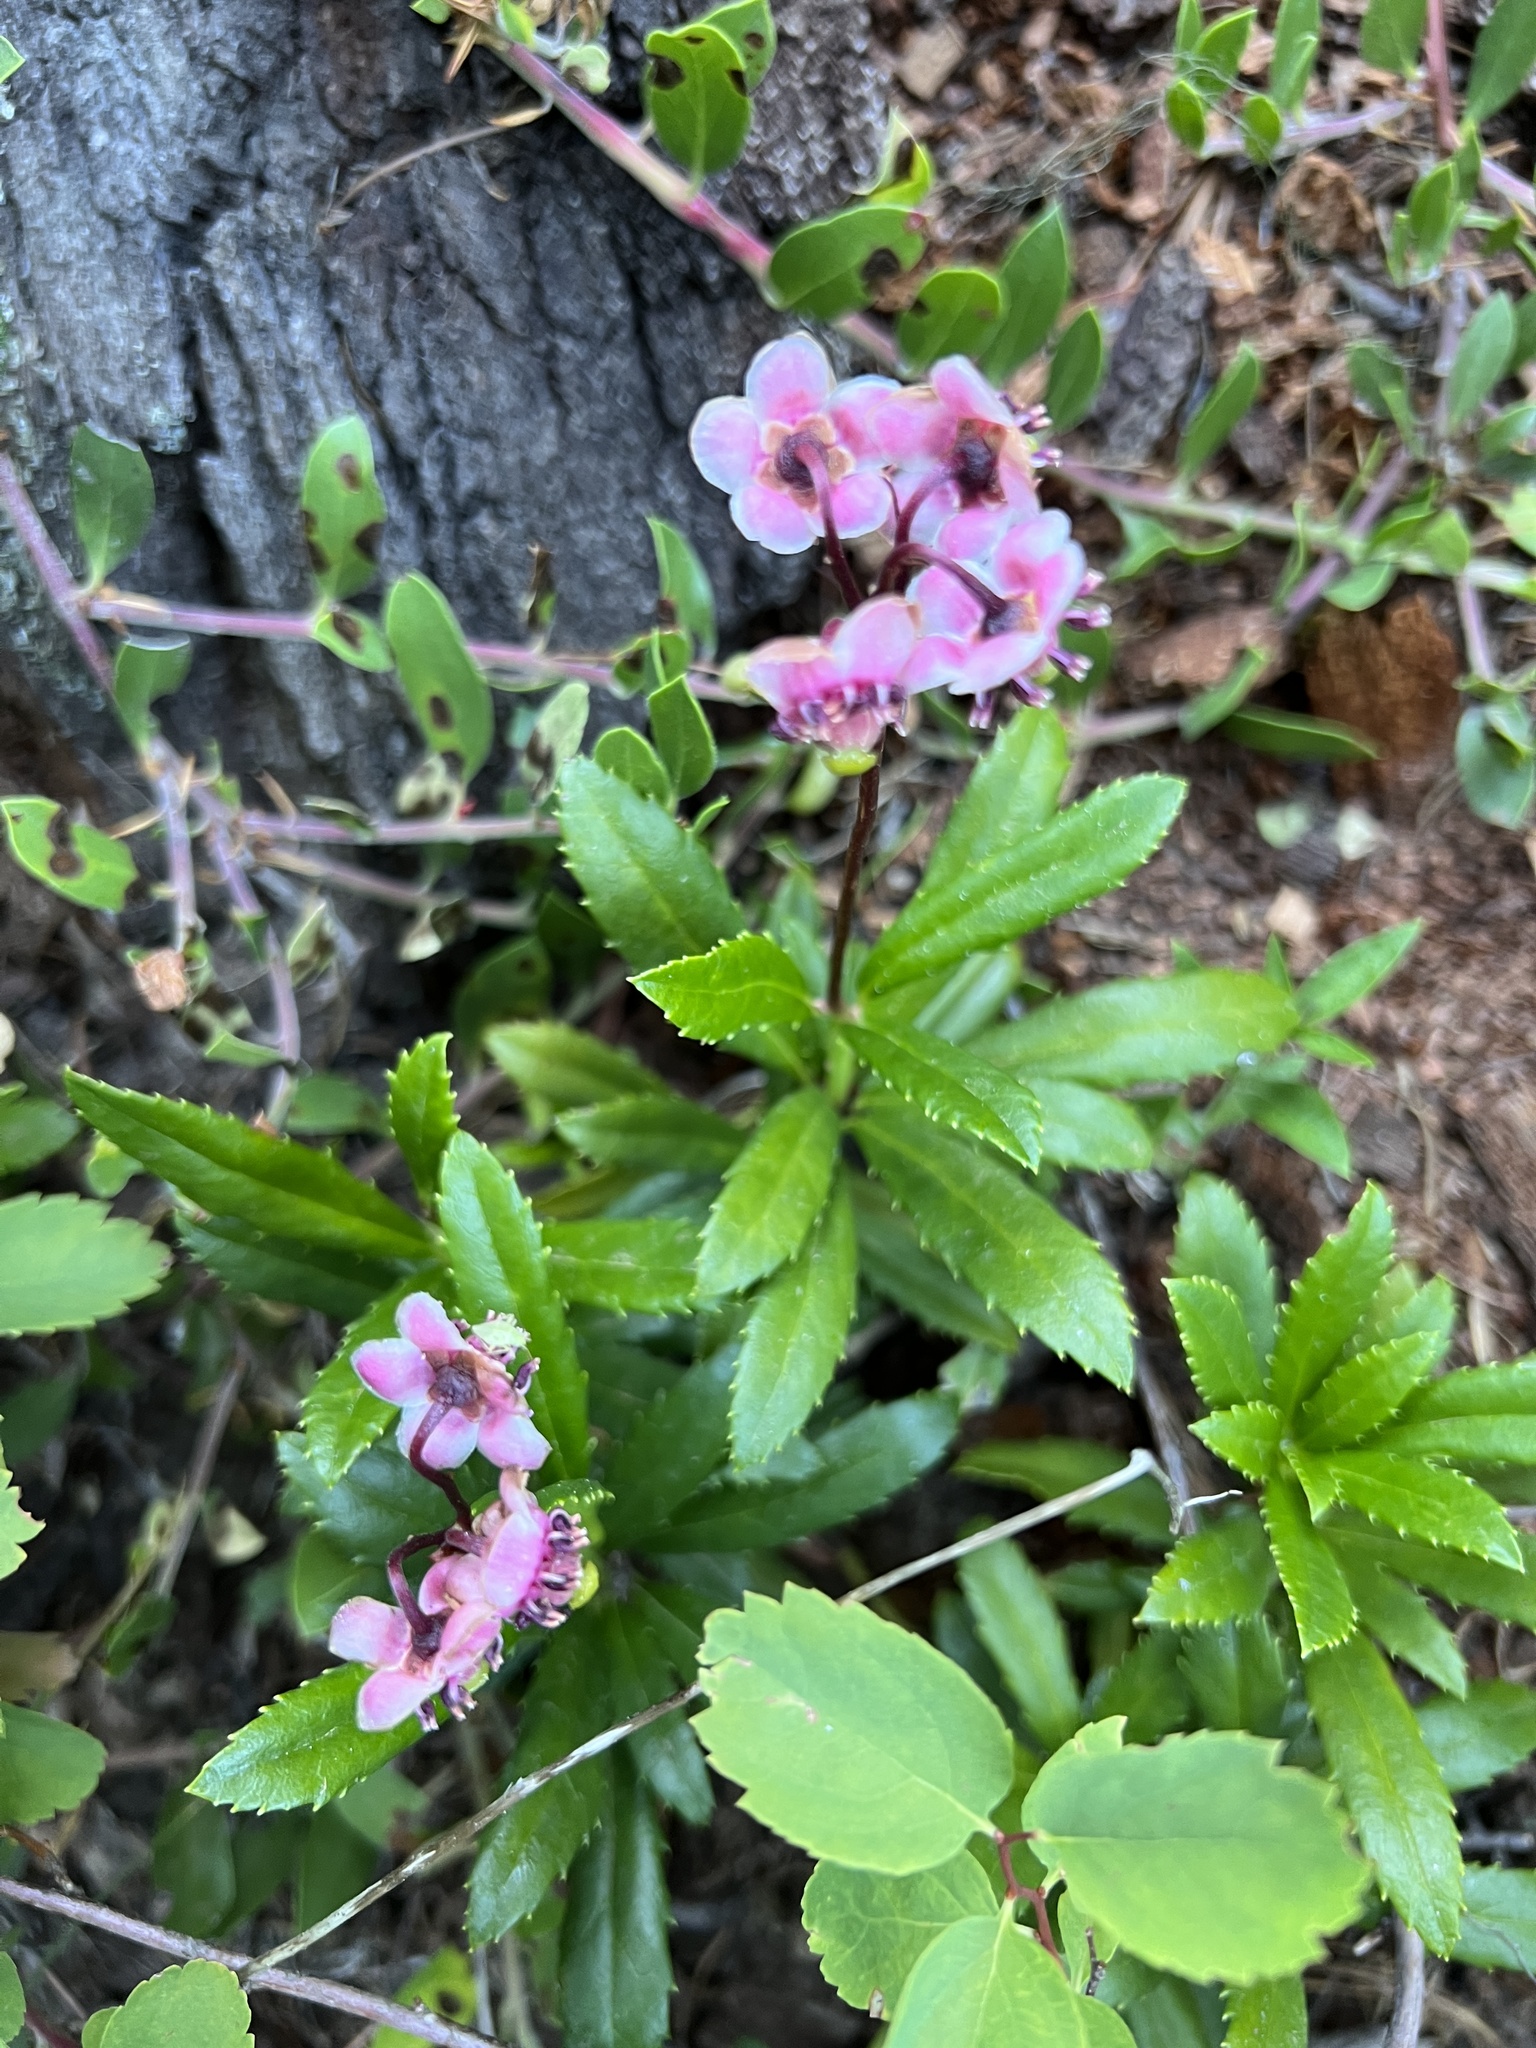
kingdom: Plantae
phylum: Tracheophyta
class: Magnoliopsida
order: Ericales
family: Ericaceae
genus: Chimaphila
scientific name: Chimaphila umbellata
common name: Pipsissewa
